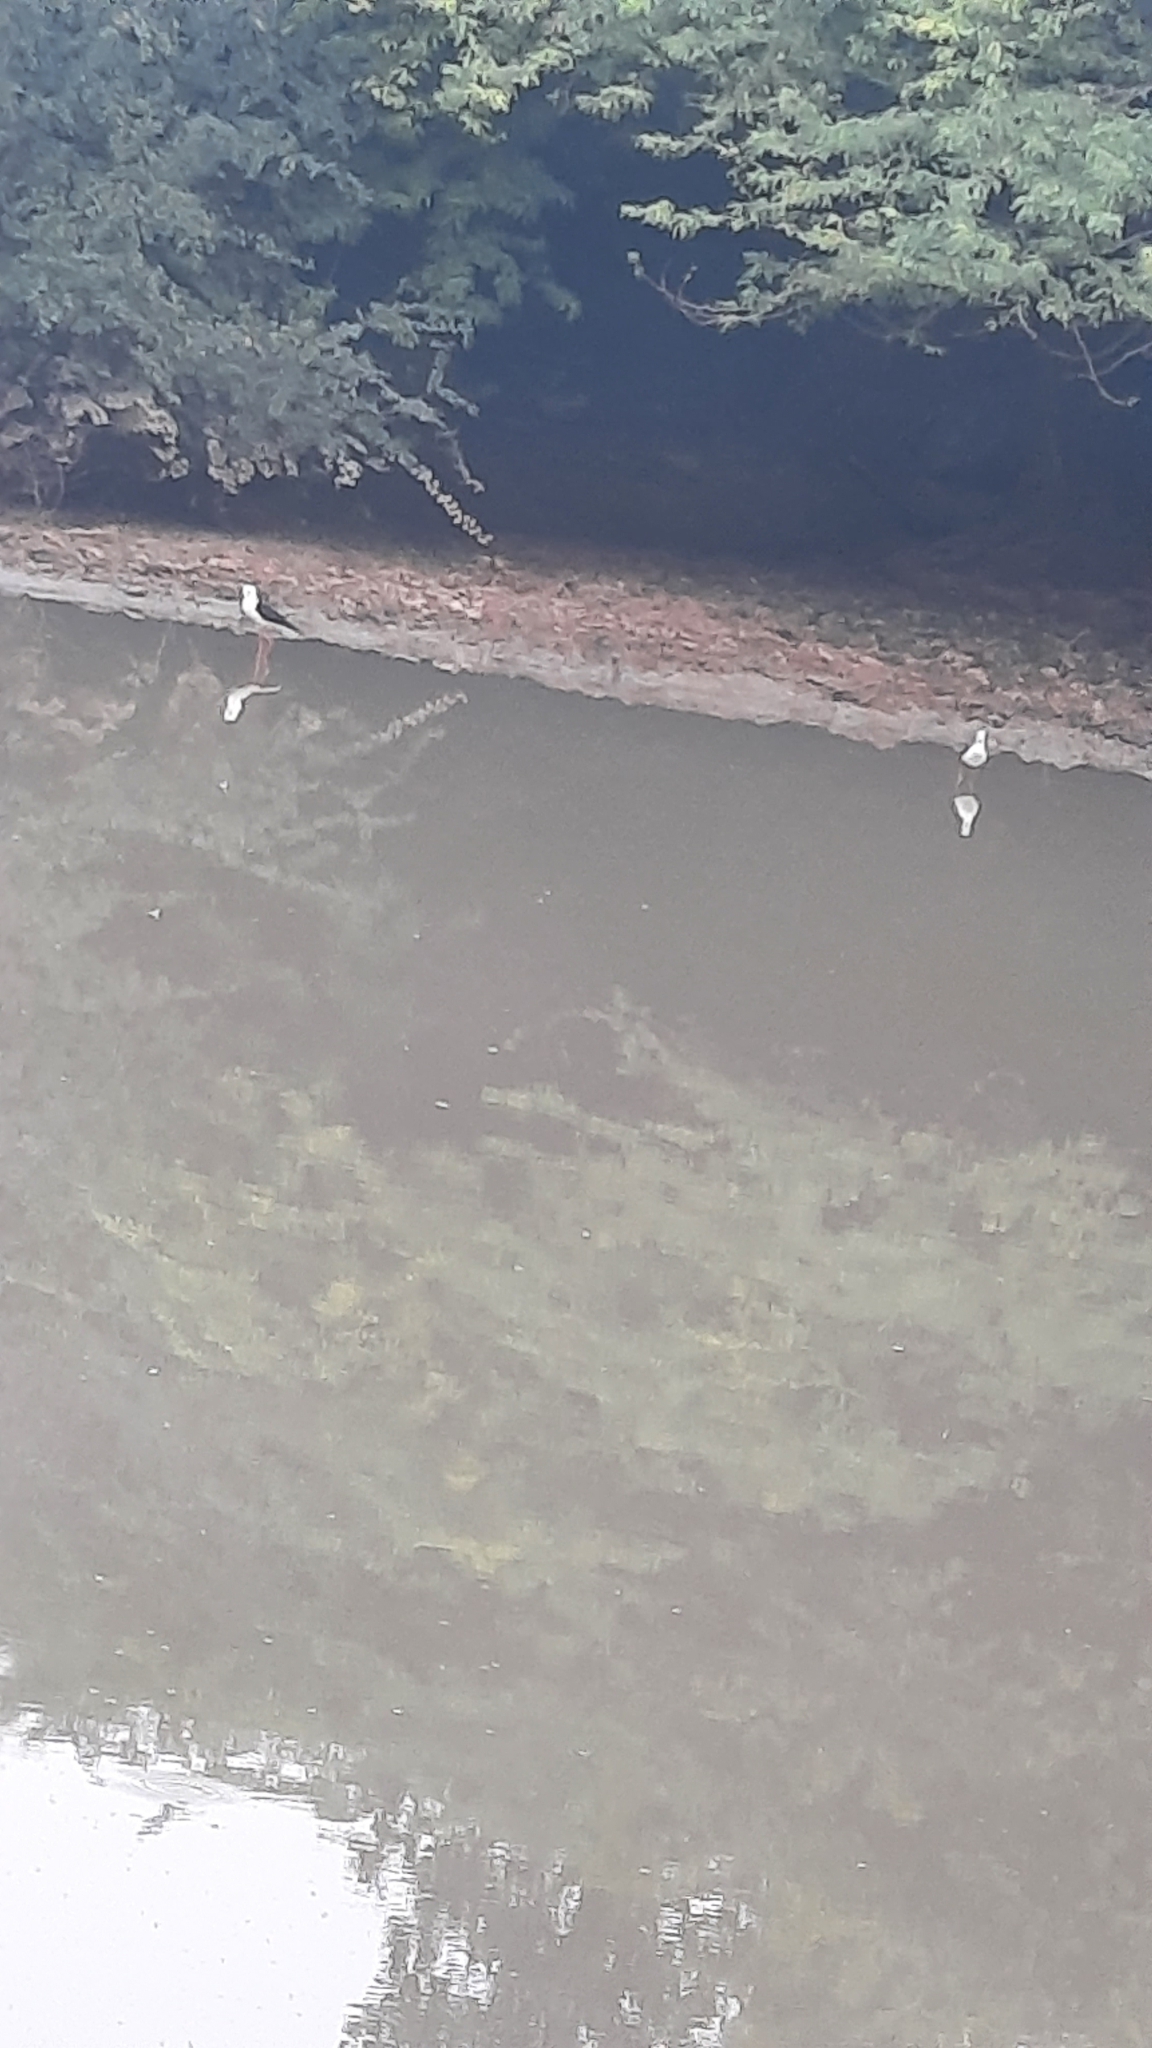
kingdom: Animalia
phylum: Chordata
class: Aves
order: Charadriiformes
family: Recurvirostridae
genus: Himantopus
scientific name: Himantopus himantopus
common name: Black-winged stilt
